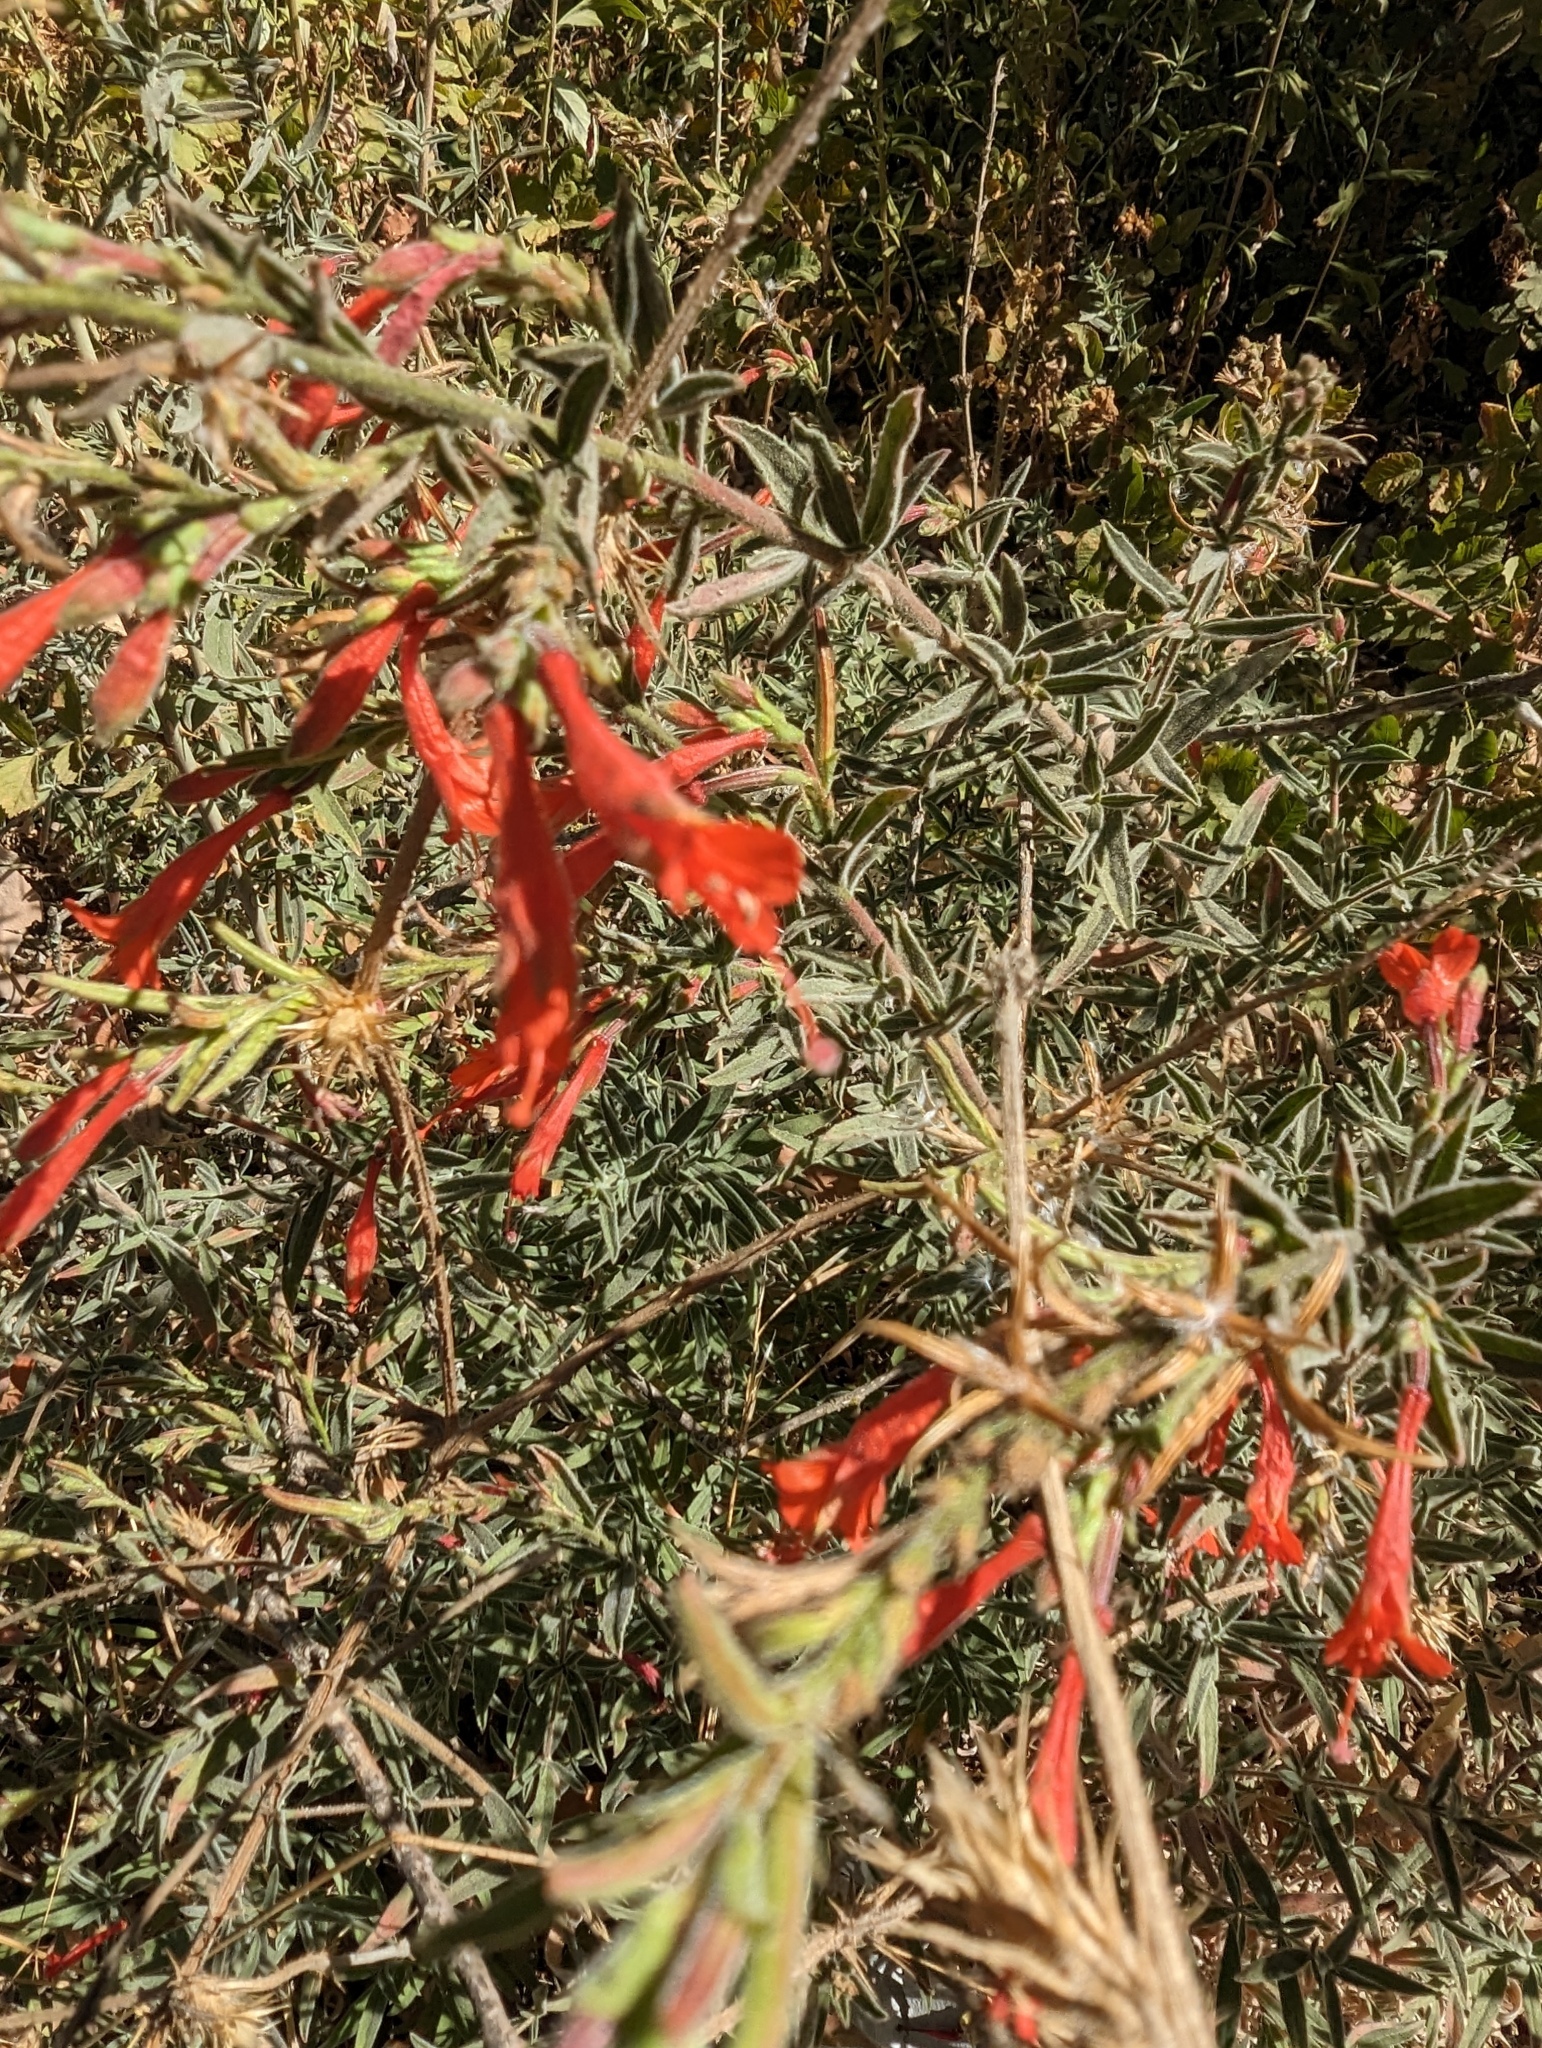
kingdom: Plantae
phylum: Tracheophyta
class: Magnoliopsida
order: Myrtales
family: Onagraceae
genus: Epilobium
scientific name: Epilobium canum
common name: California-fuchsia
